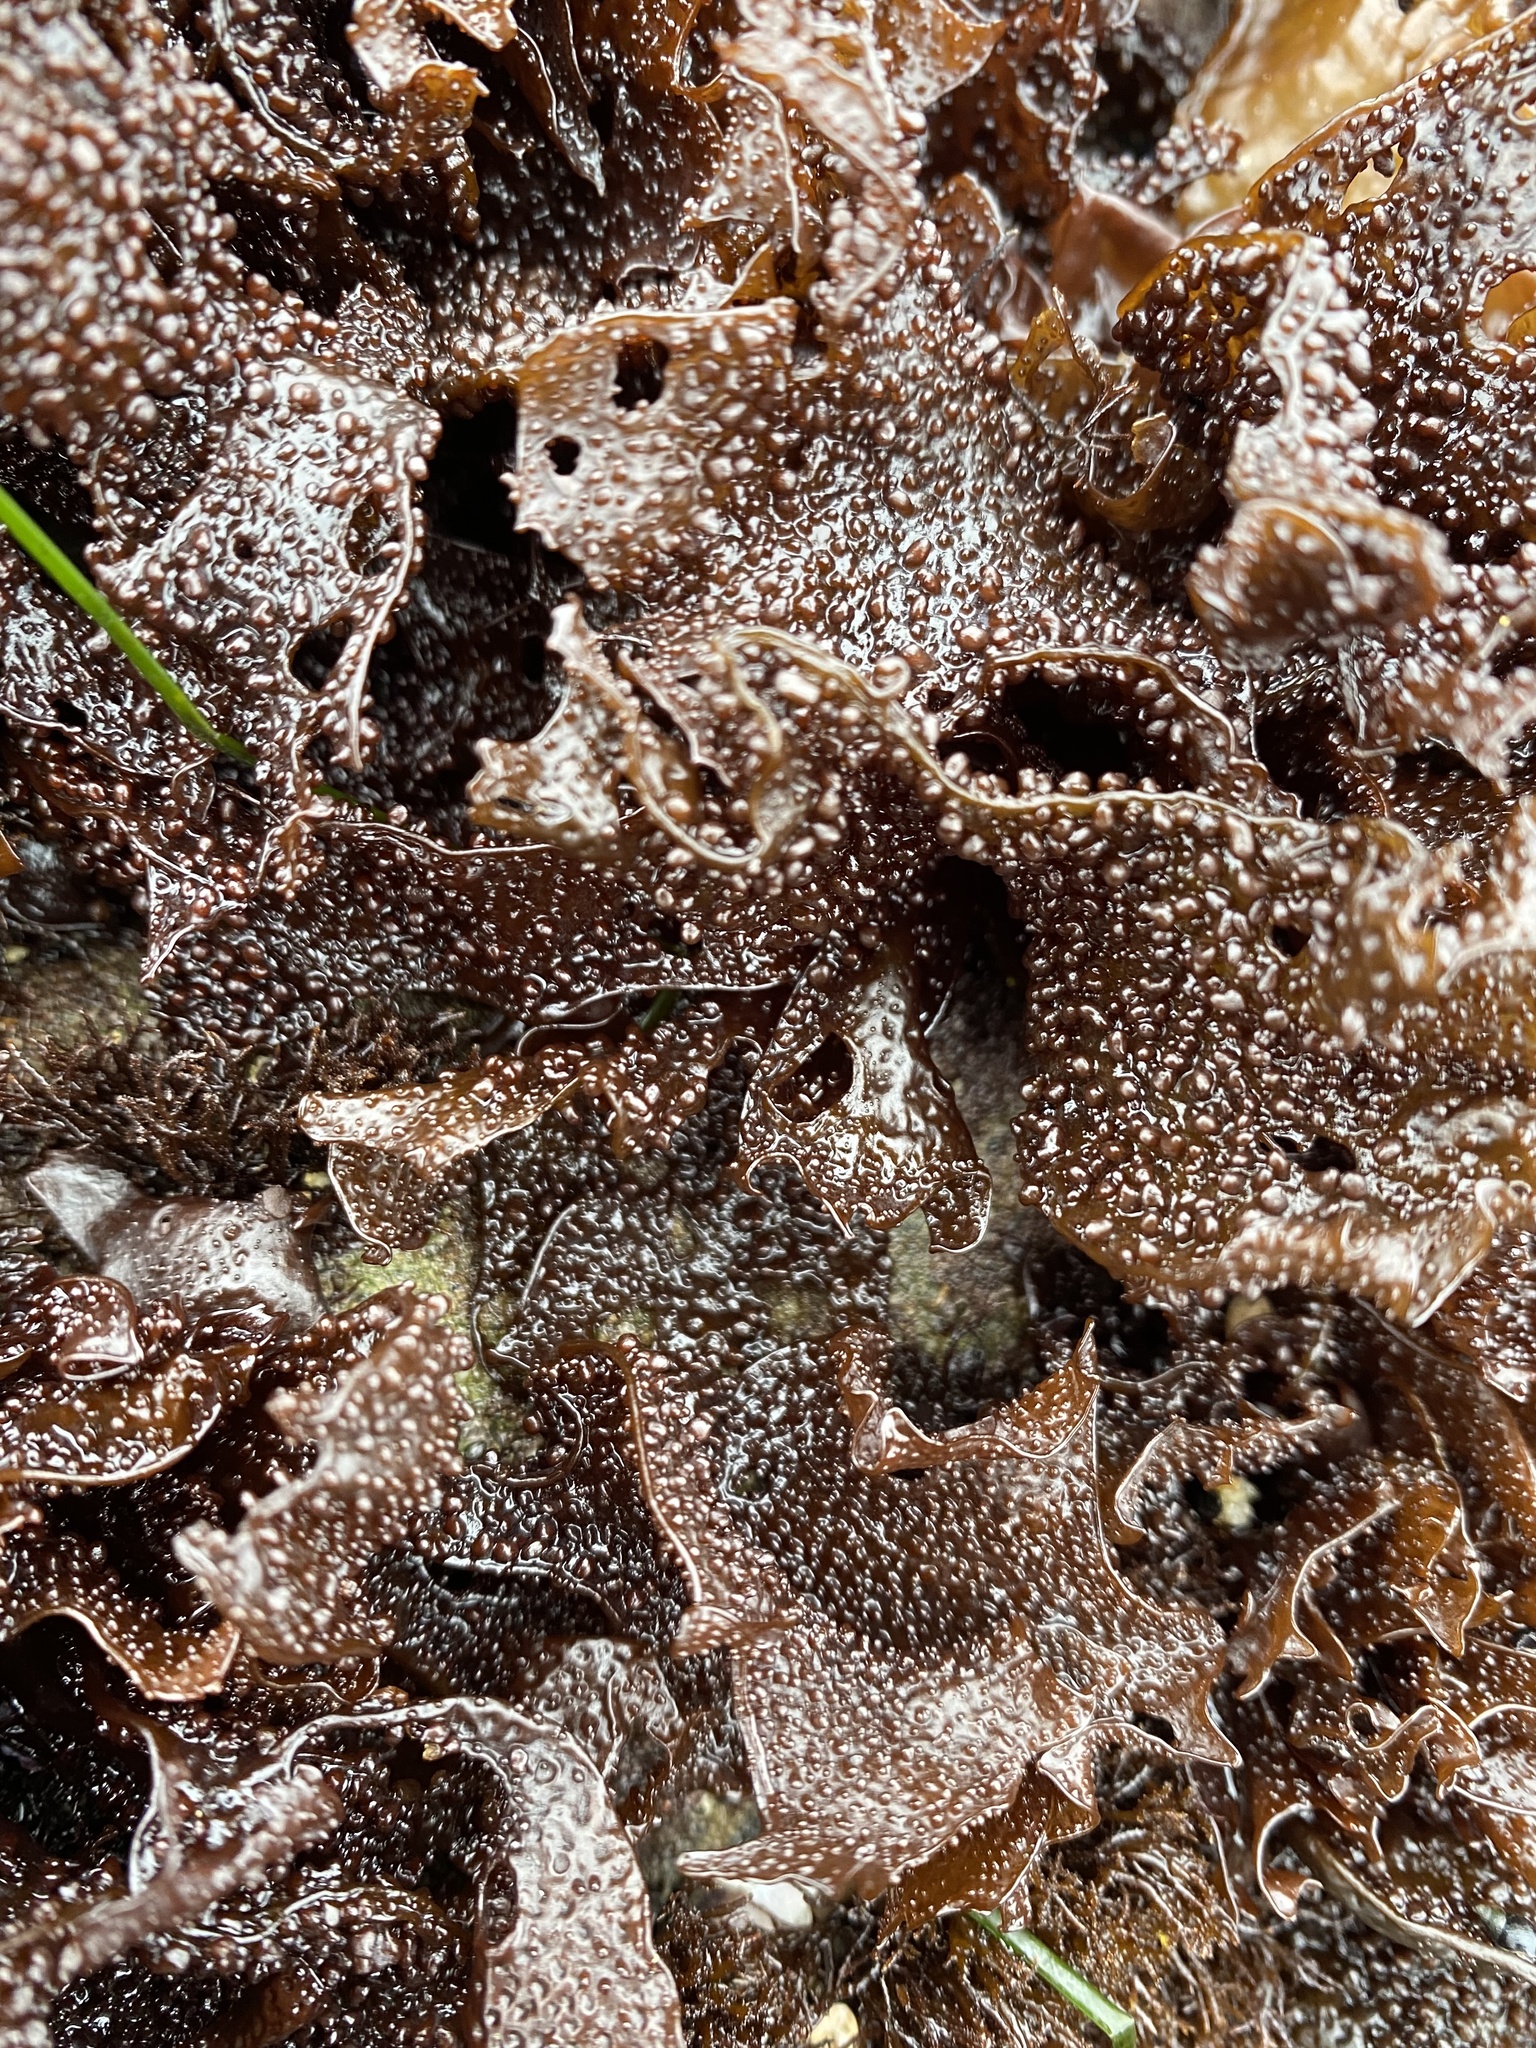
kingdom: Plantae
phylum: Rhodophyta
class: Florideophyceae
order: Gigartinales
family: Phyllophoraceae
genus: Mastocarpus
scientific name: Mastocarpus papillatus
